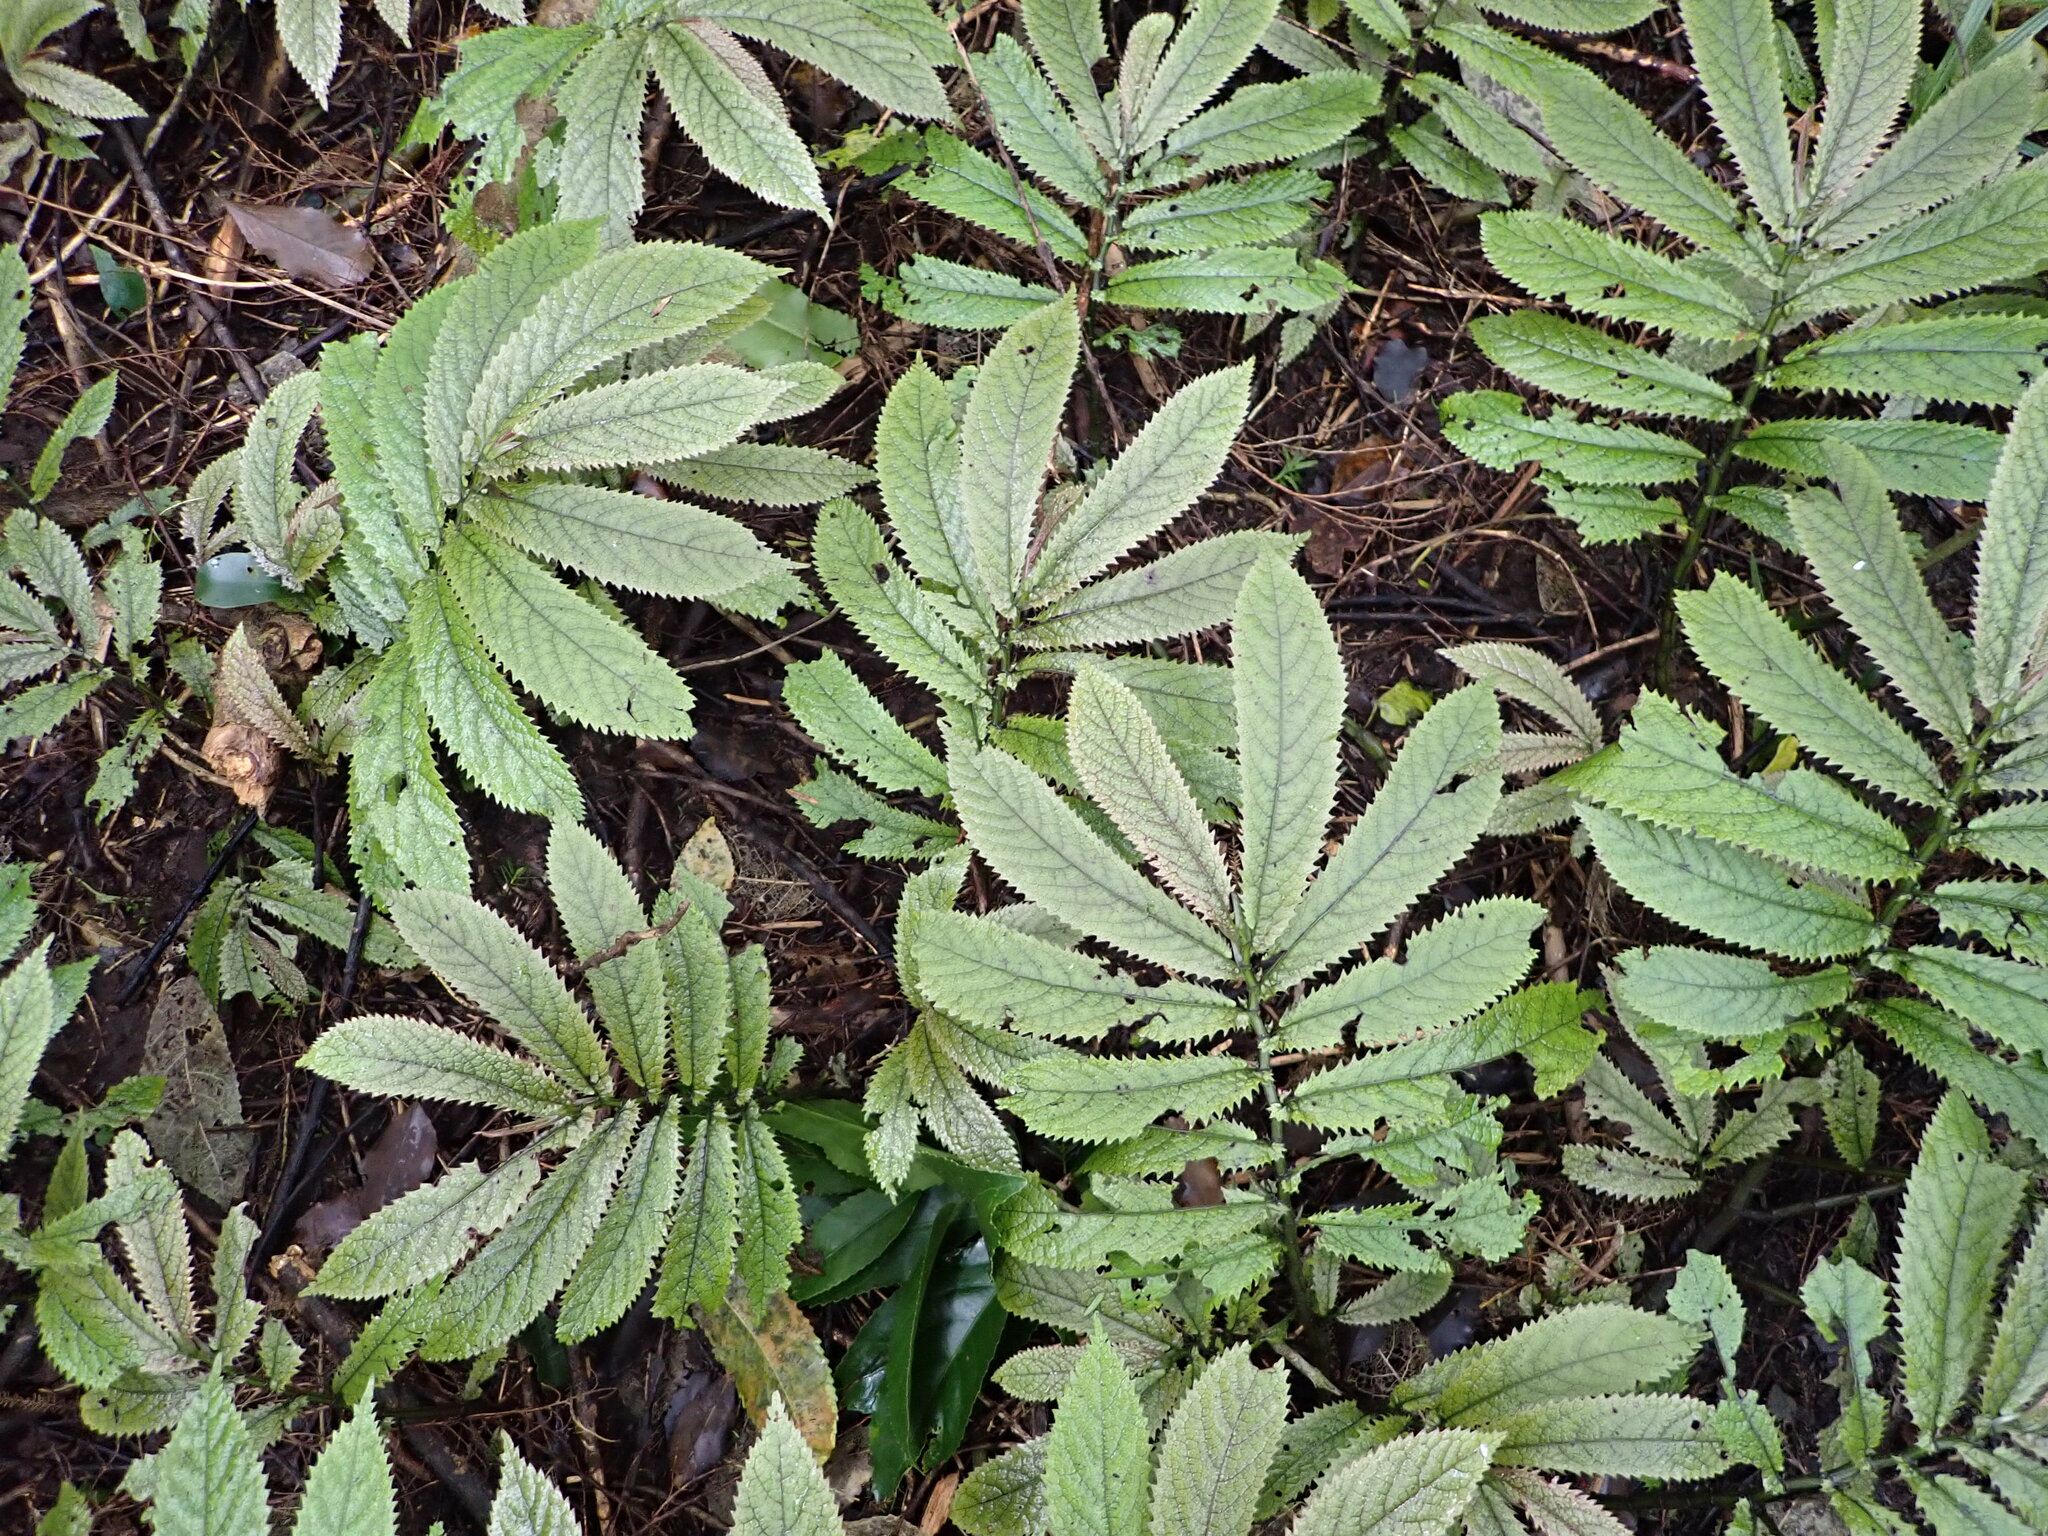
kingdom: Plantae
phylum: Tracheophyta
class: Magnoliopsida
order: Rosales
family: Urticaceae
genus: Elatostema
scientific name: Elatostema rugosum
